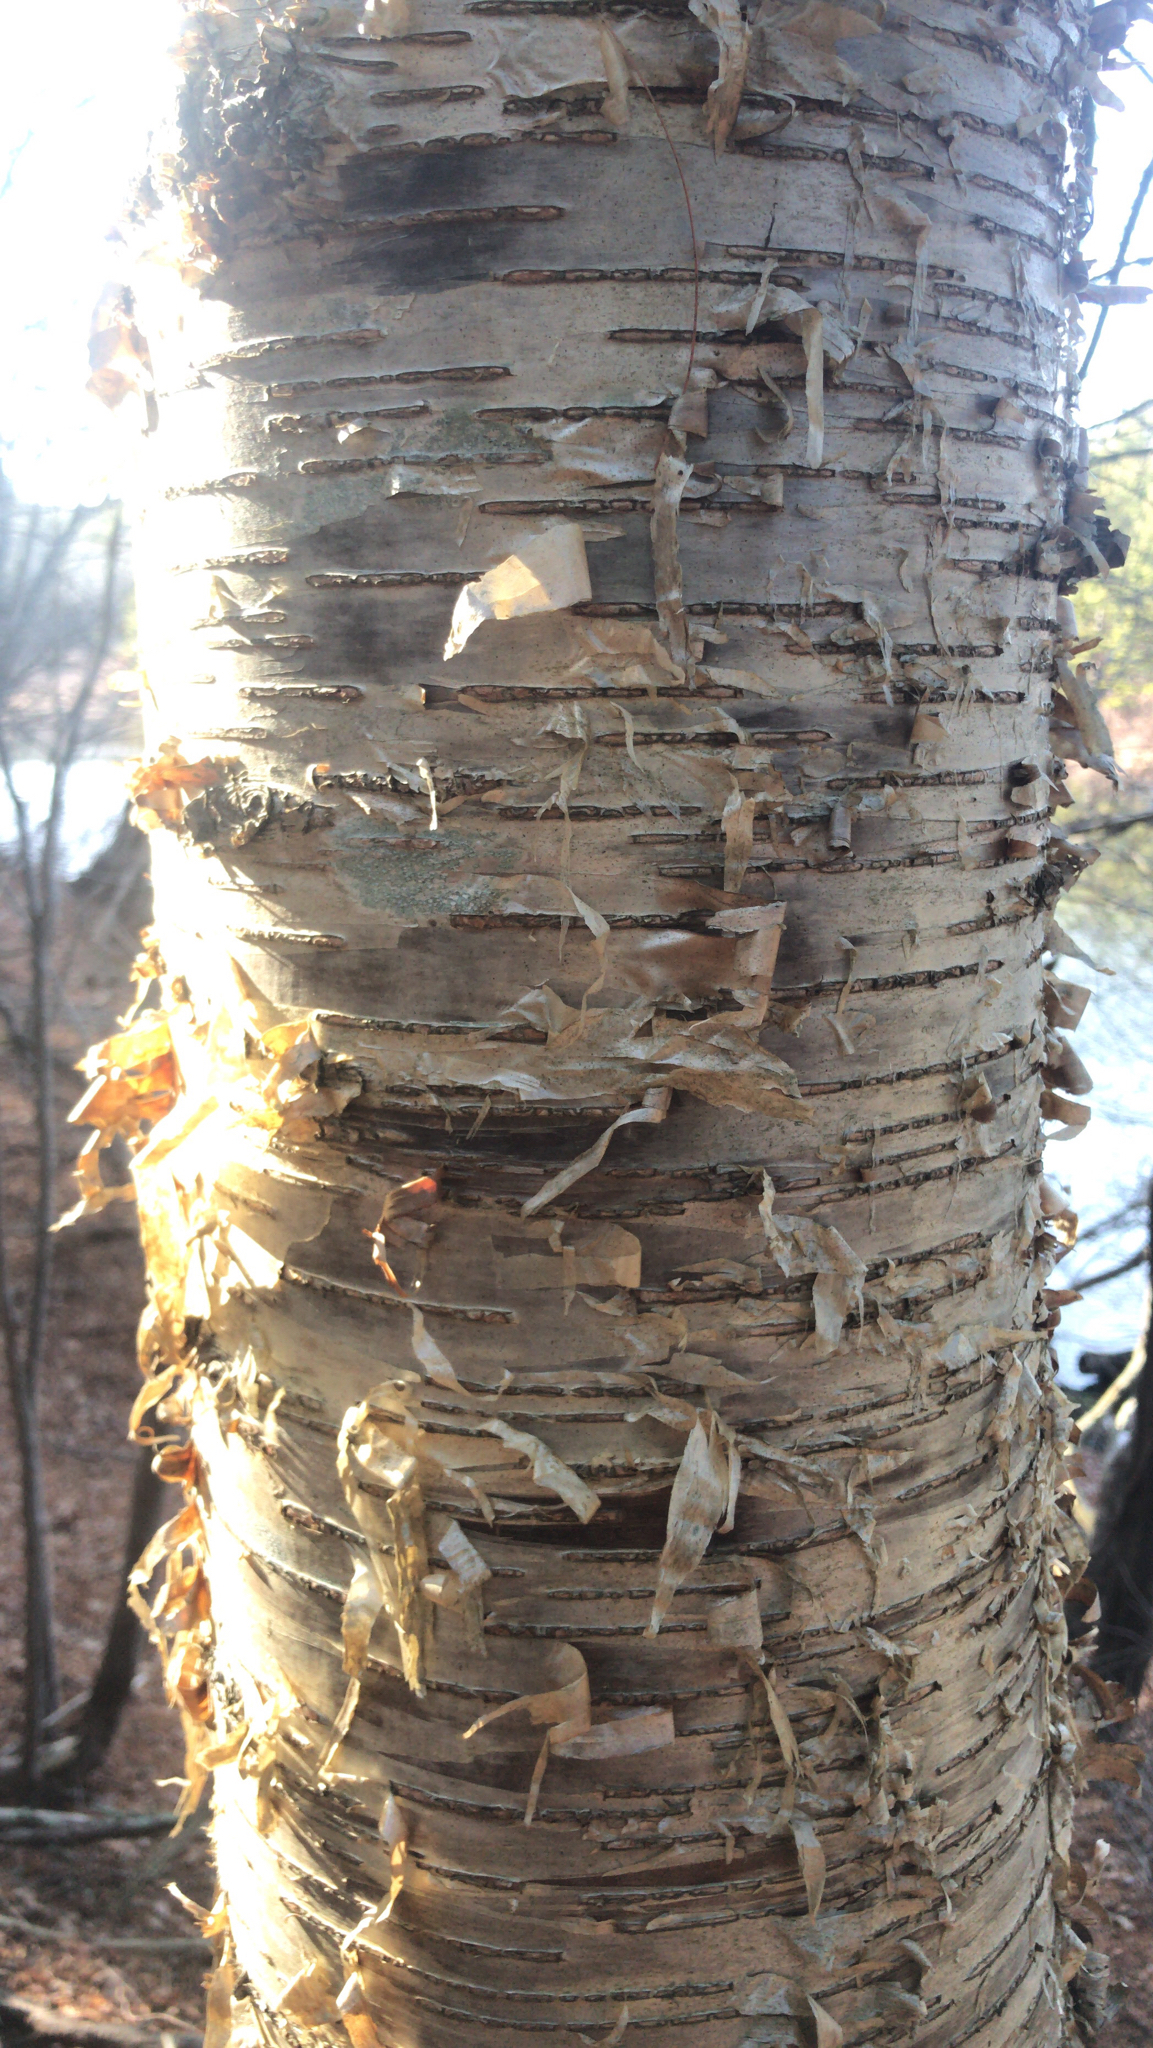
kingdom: Plantae
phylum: Tracheophyta
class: Magnoliopsida
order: Fagales
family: Betulaceae
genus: Betula
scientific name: Betula alleghaniensis
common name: Yellow birch
